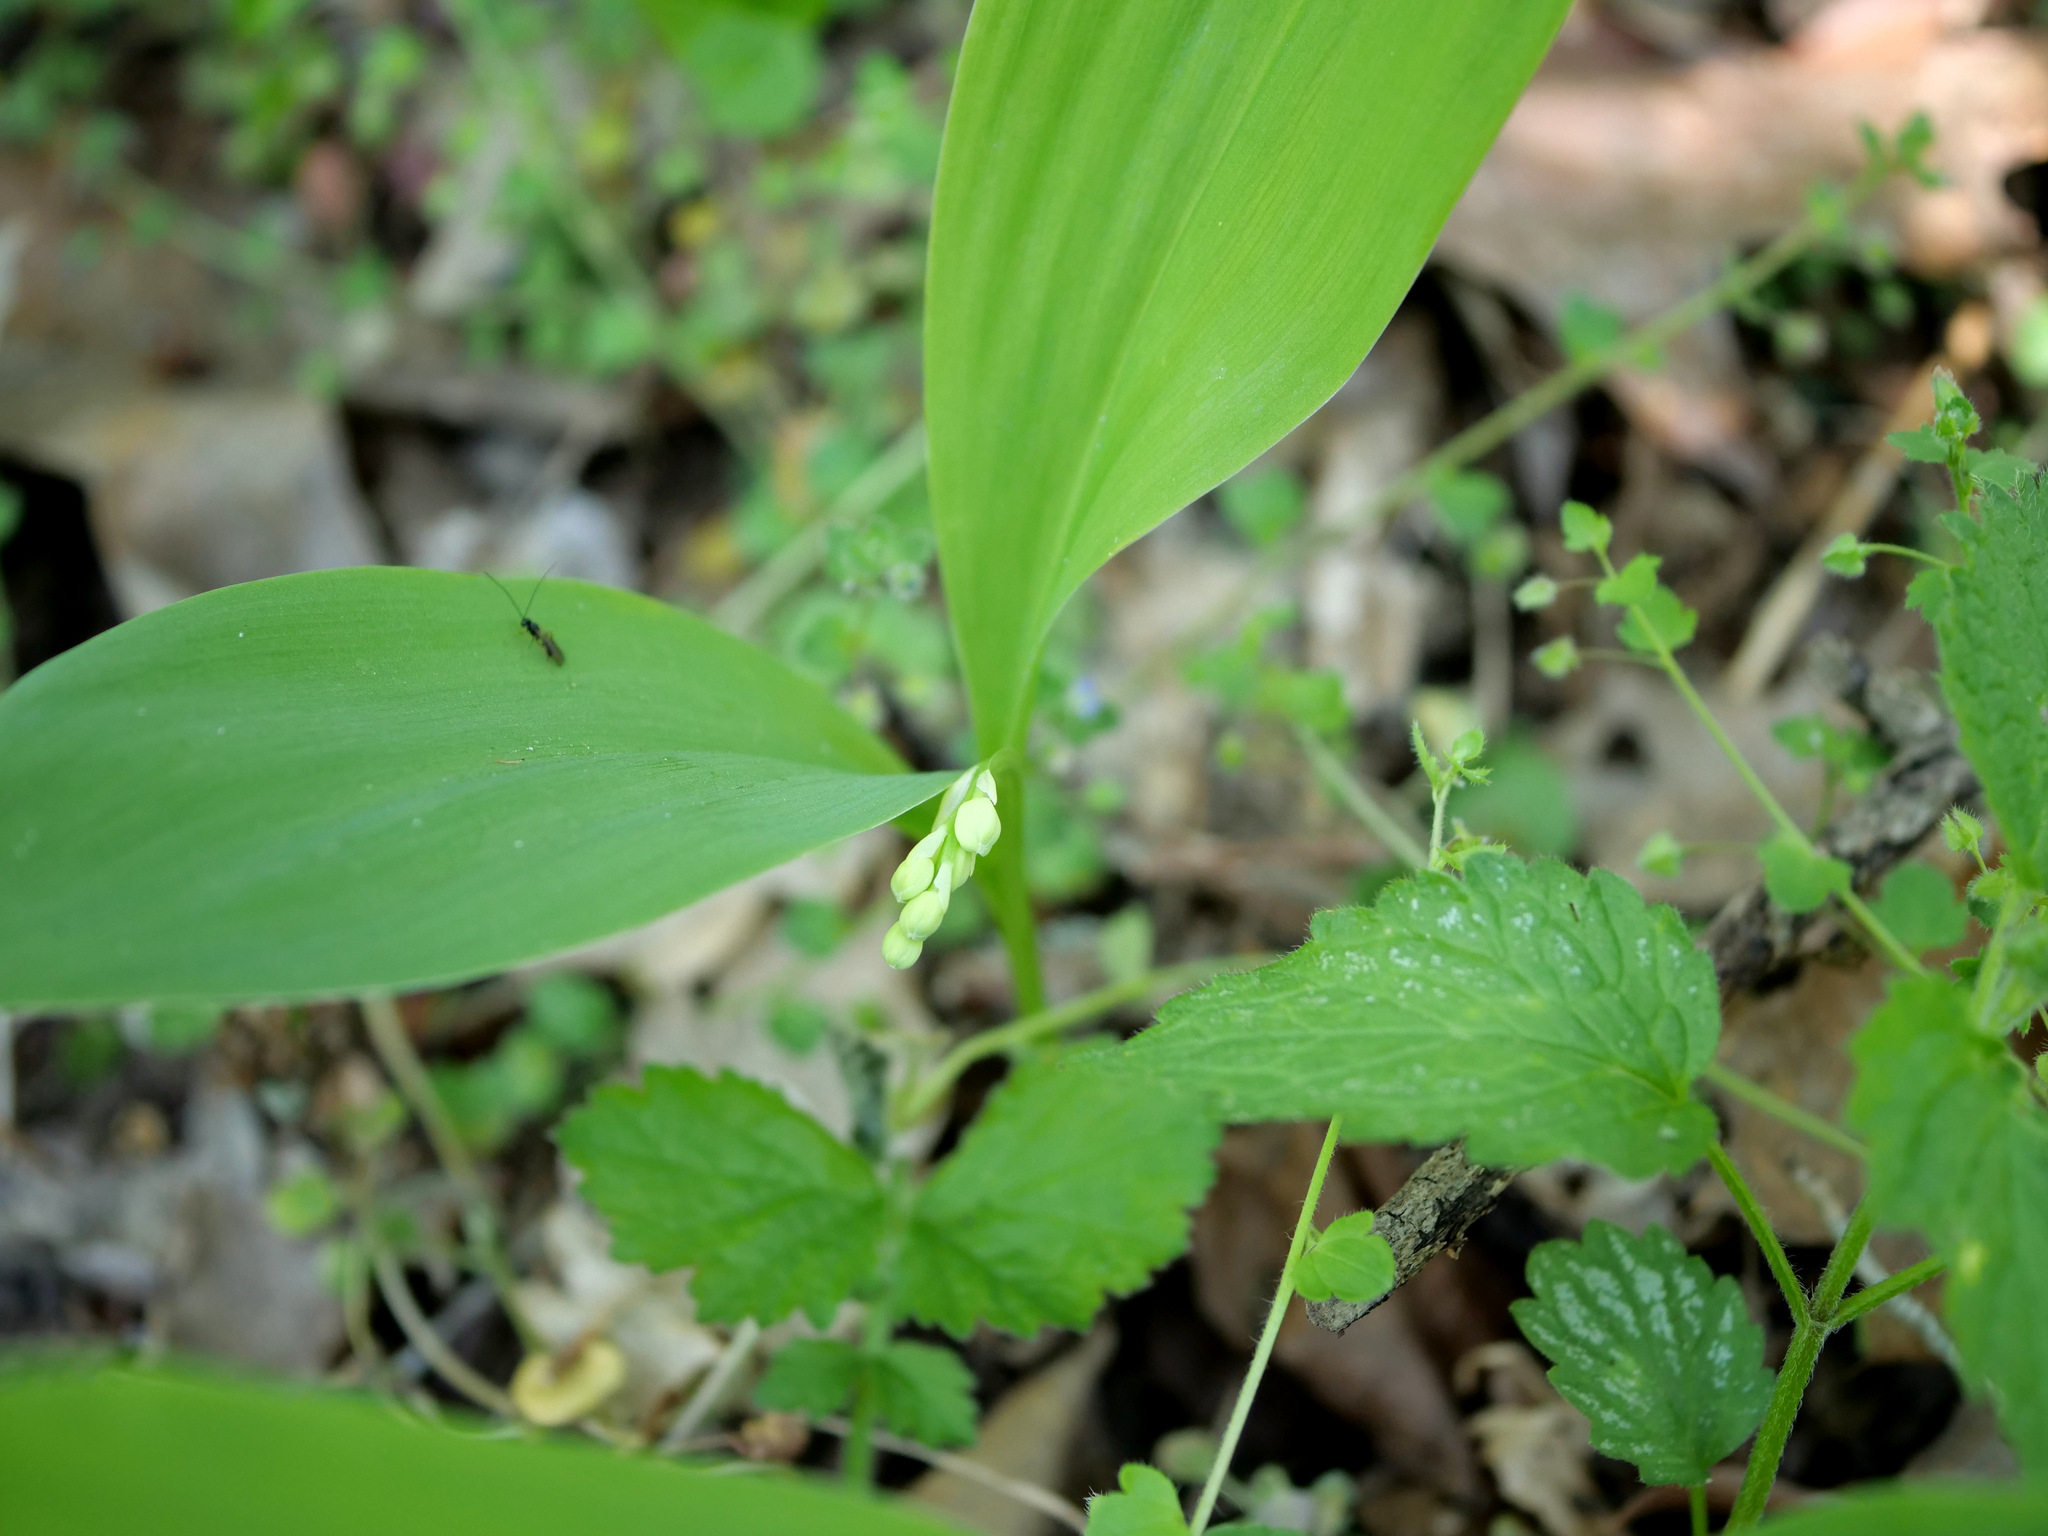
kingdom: Plantae
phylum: Tracheophyta
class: Liliopsida
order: Asparagales
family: Asparagaceae
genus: Convallaria
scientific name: Convallaria majalis
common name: Lily-of-the-valley
